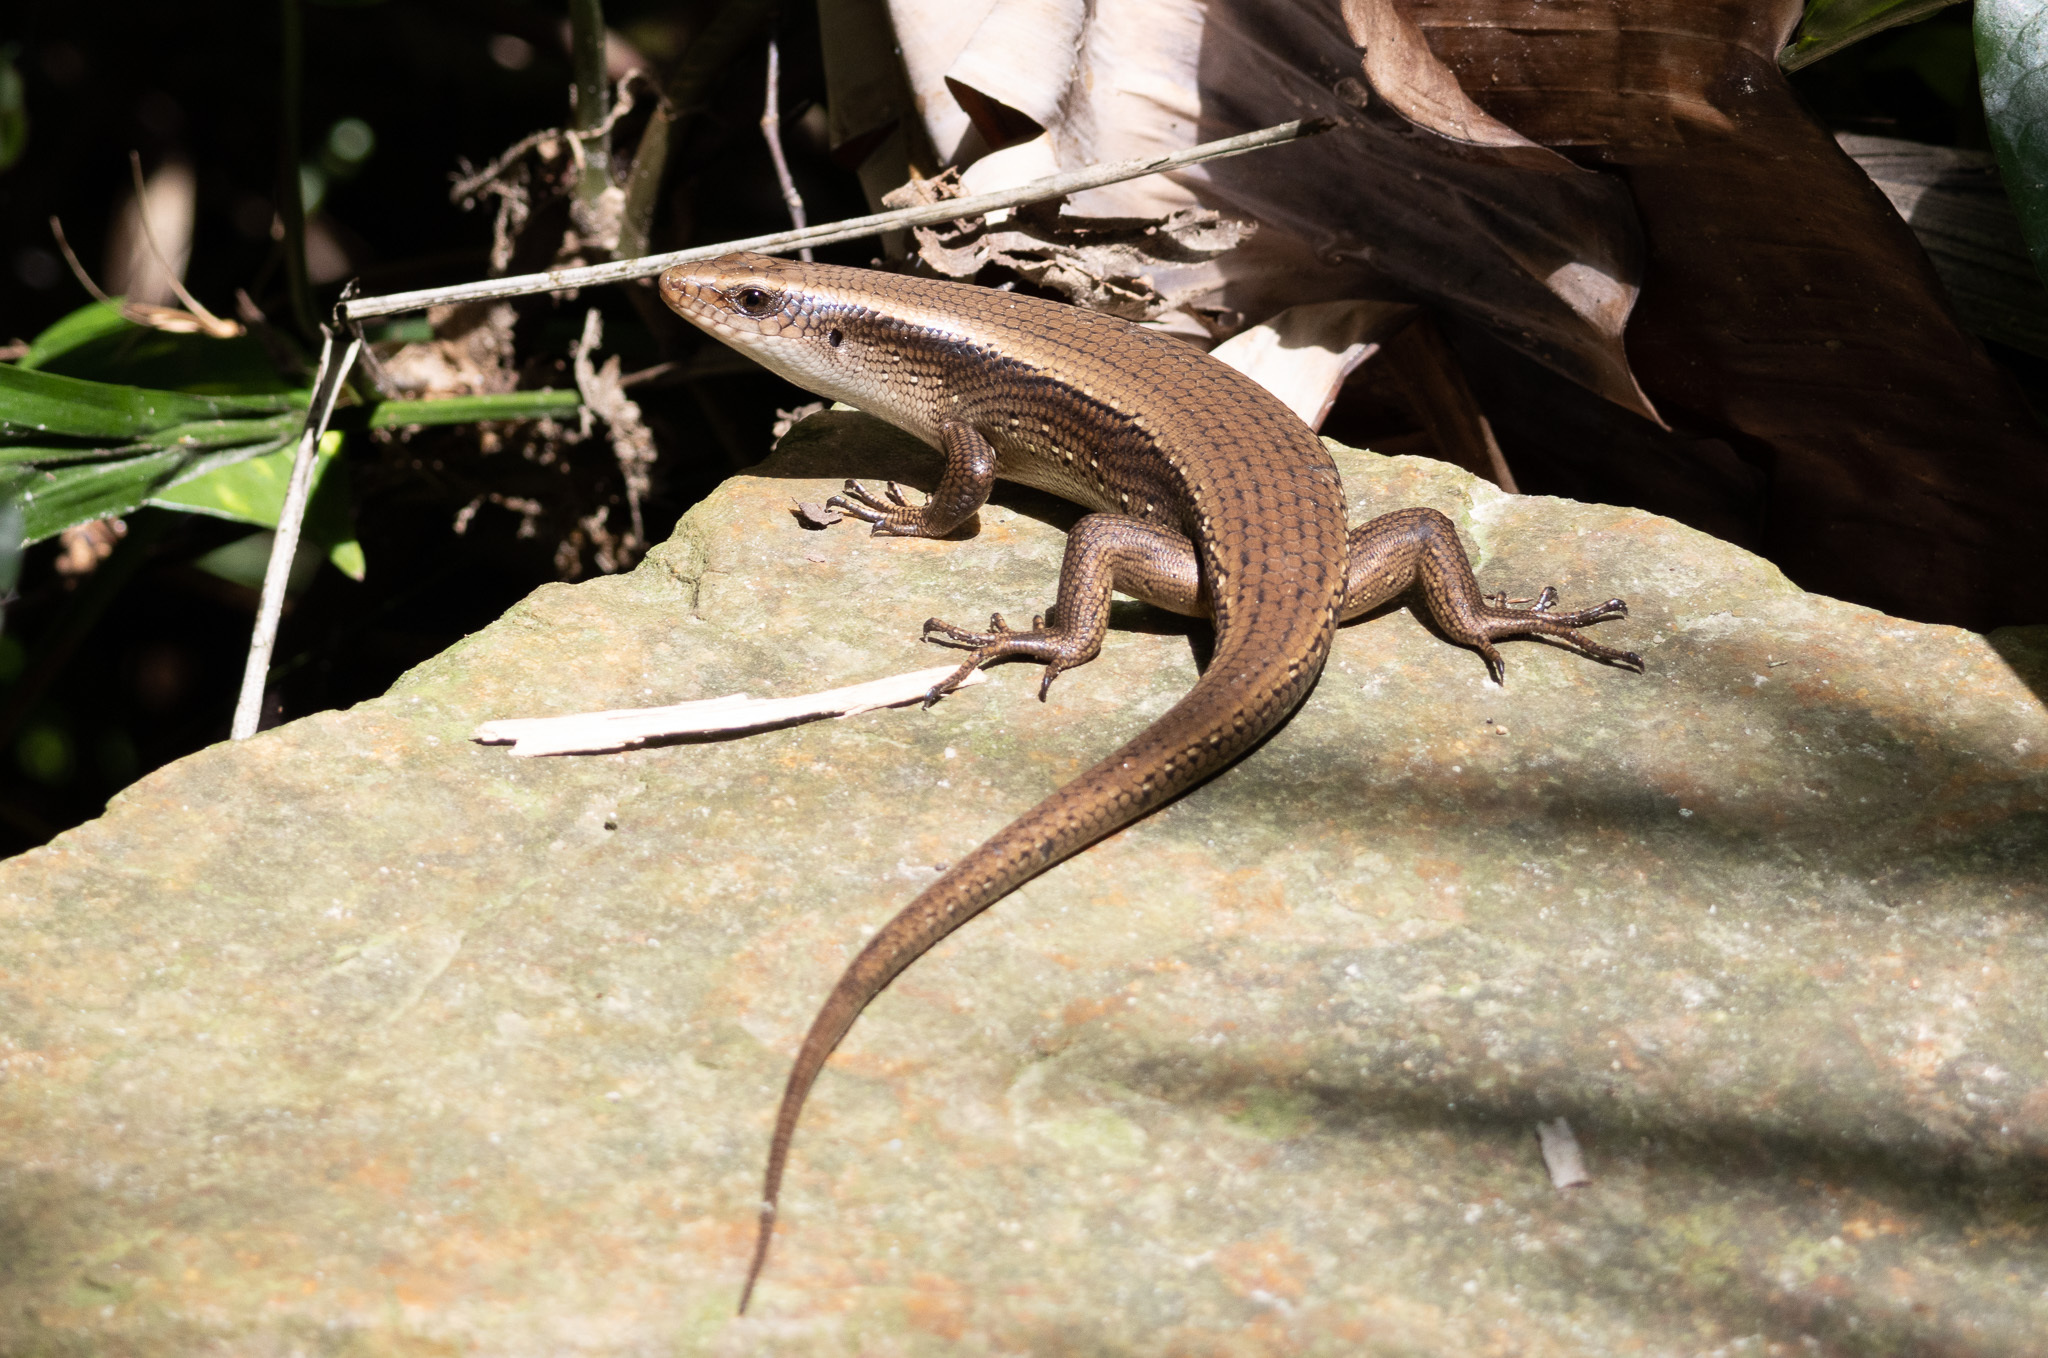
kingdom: Animalia
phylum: Chordata
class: Squamata
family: Scincidae
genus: Eutropis
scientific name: Eutropis multifasciata
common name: Common mabuya
